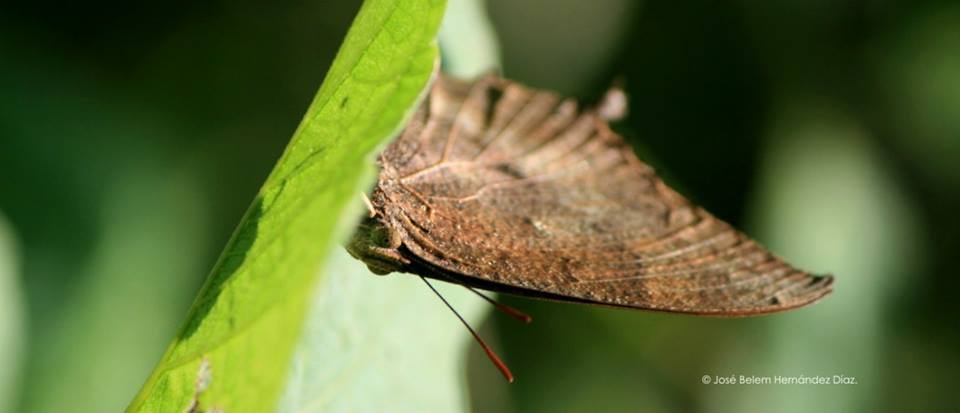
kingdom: Animalia
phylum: Arthropoda
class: Insecta
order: Lepidoptera
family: Nymphalidae
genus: Anaea
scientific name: Anaea aidea
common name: Tropical leafwing
